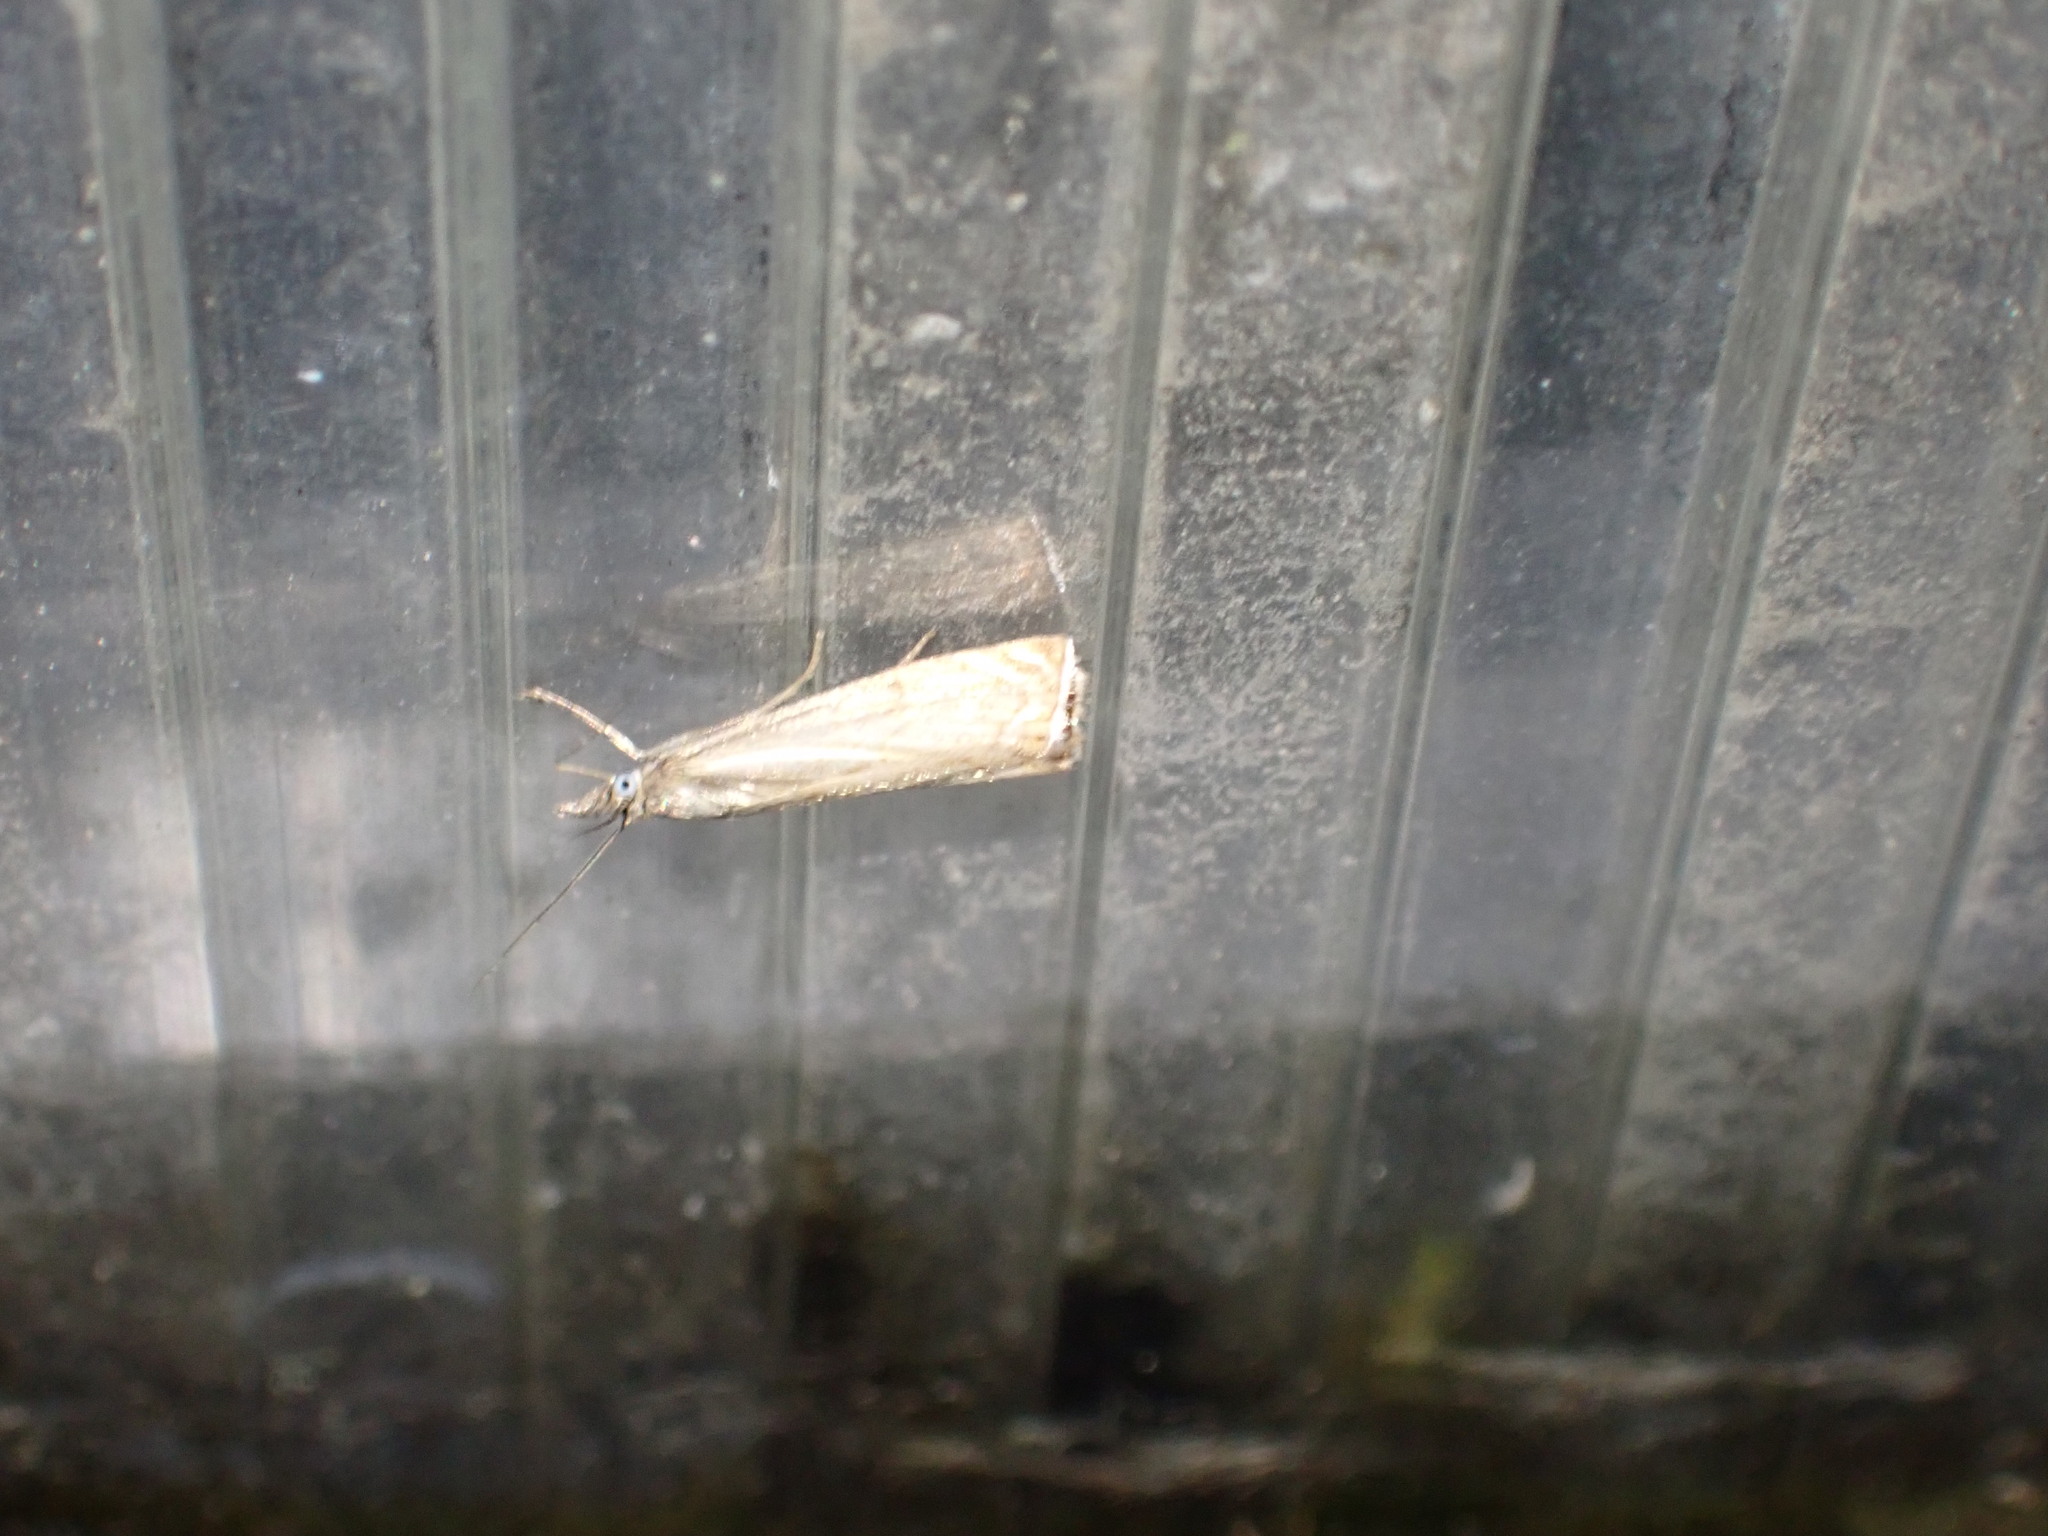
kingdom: Animalia
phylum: Arthropoda
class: Insecta
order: Lepidoptera
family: Crambidae
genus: Chrysoteuchia
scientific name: Chrysoteuchia culmella
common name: Garden grass-veneer
